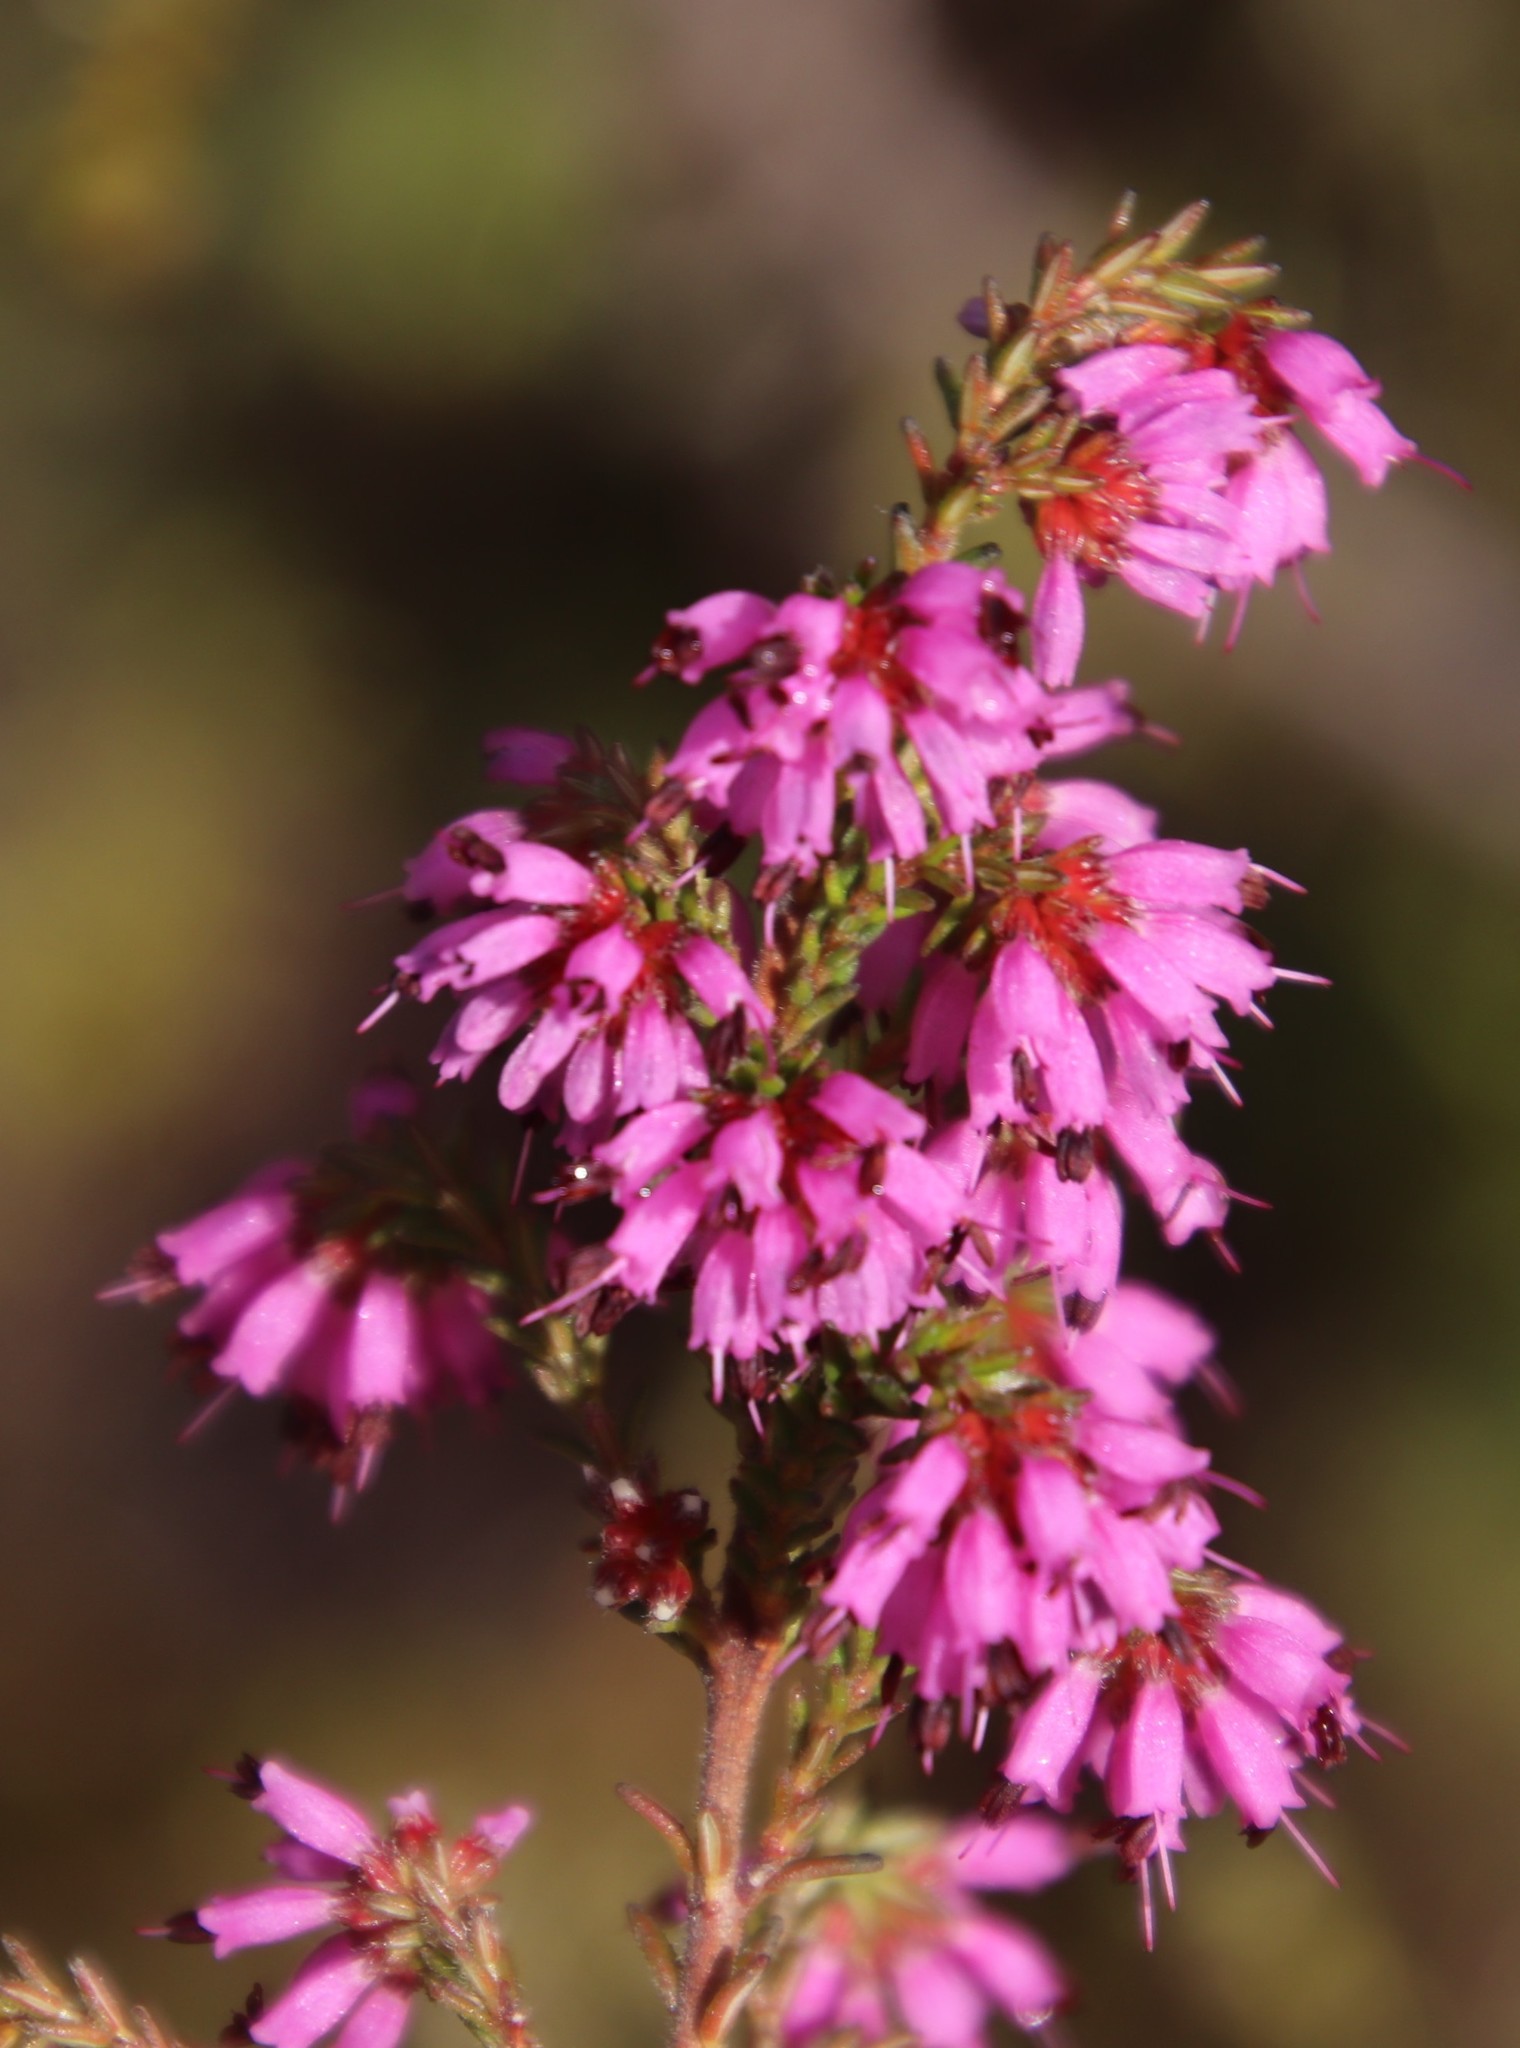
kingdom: Plantae
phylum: Tracheophyta
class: Magnoliopsida
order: Ericales
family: Ericaceae
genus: Erica
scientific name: Erica equisetifolia
